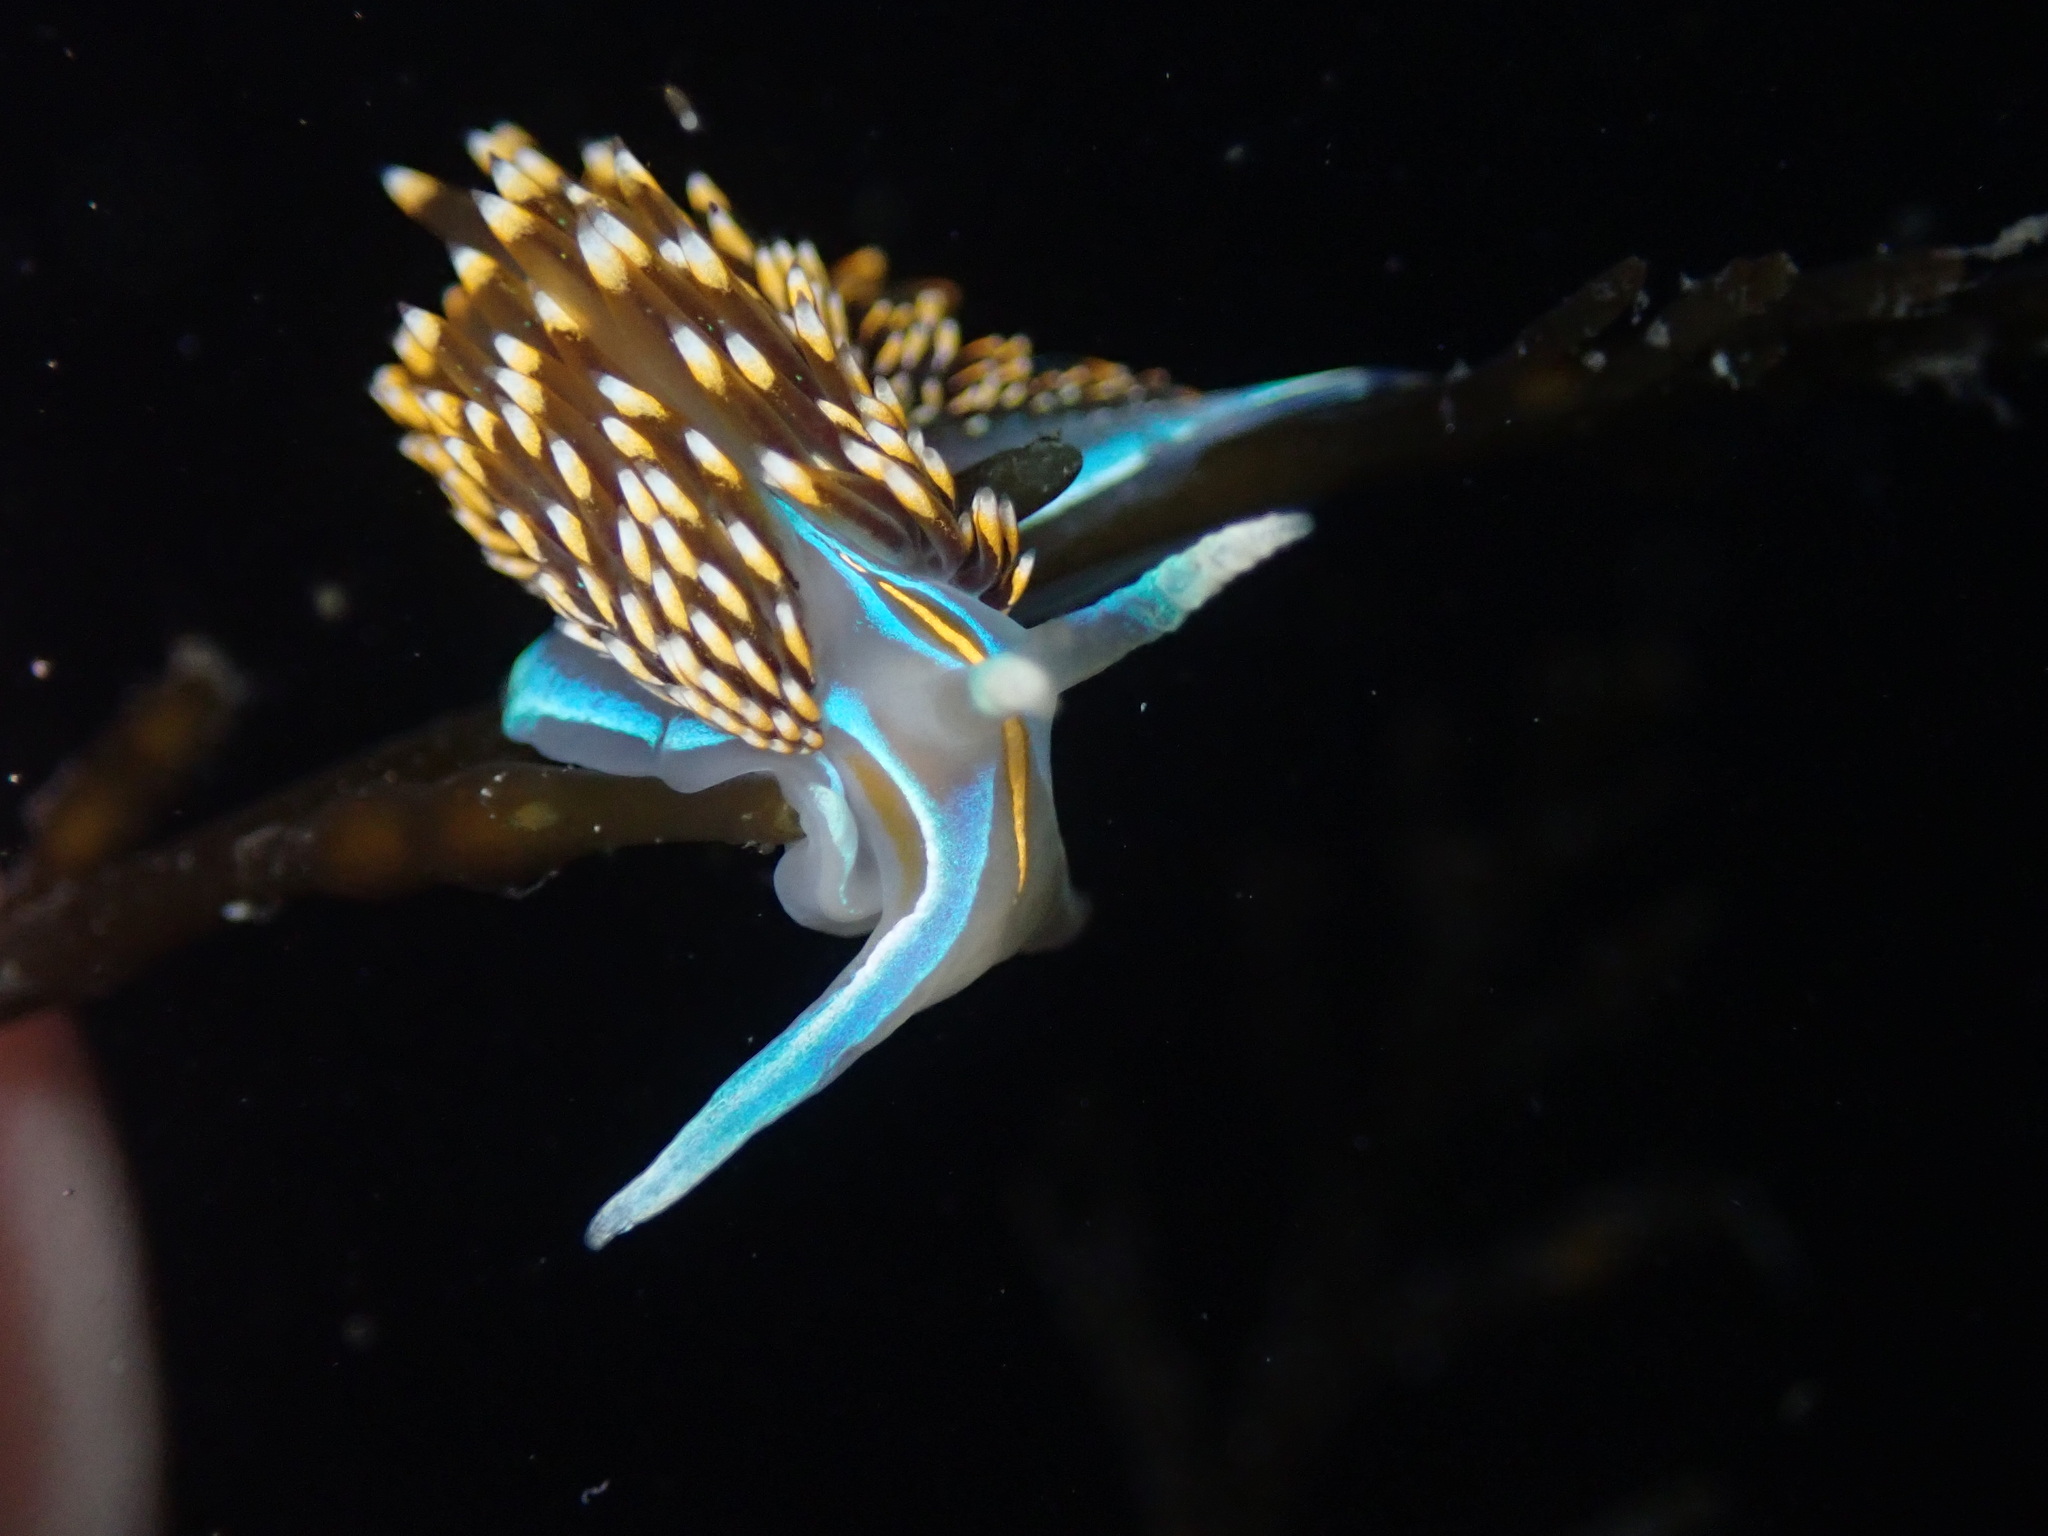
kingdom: Animalia
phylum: Mollusca
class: Gastropoda
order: Nudibranchia
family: Myrrhinidae
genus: Hermissenda
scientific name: Hermissenda opalescens
